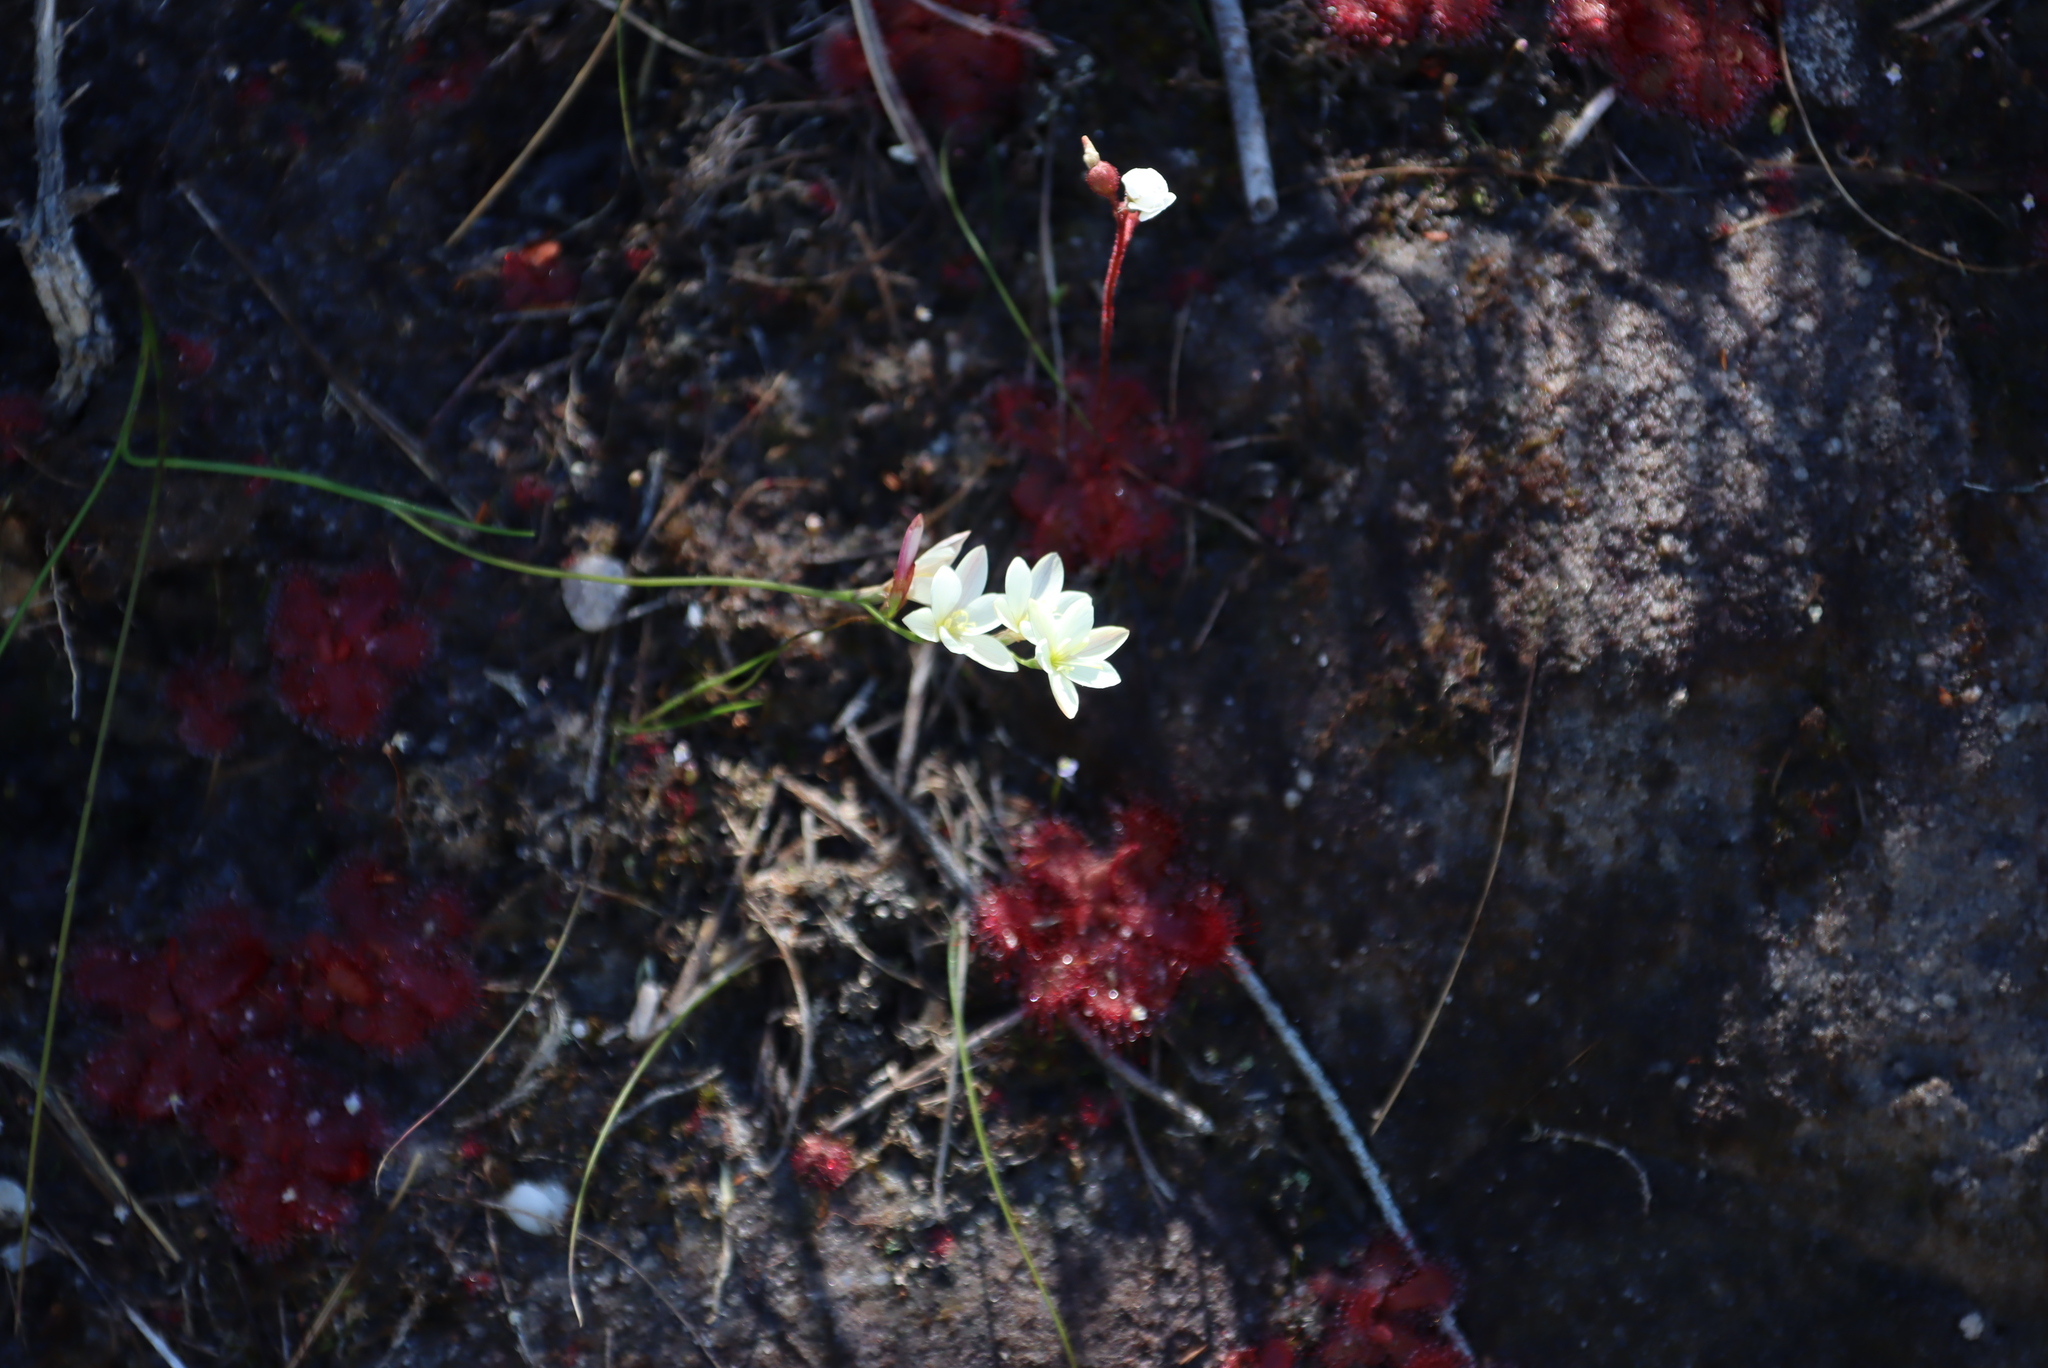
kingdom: Plantae
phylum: Tracheophyta
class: Magnoliopsida
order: Caryophyllales
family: Droseraceae
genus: Drosera
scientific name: Drosera trinervia
